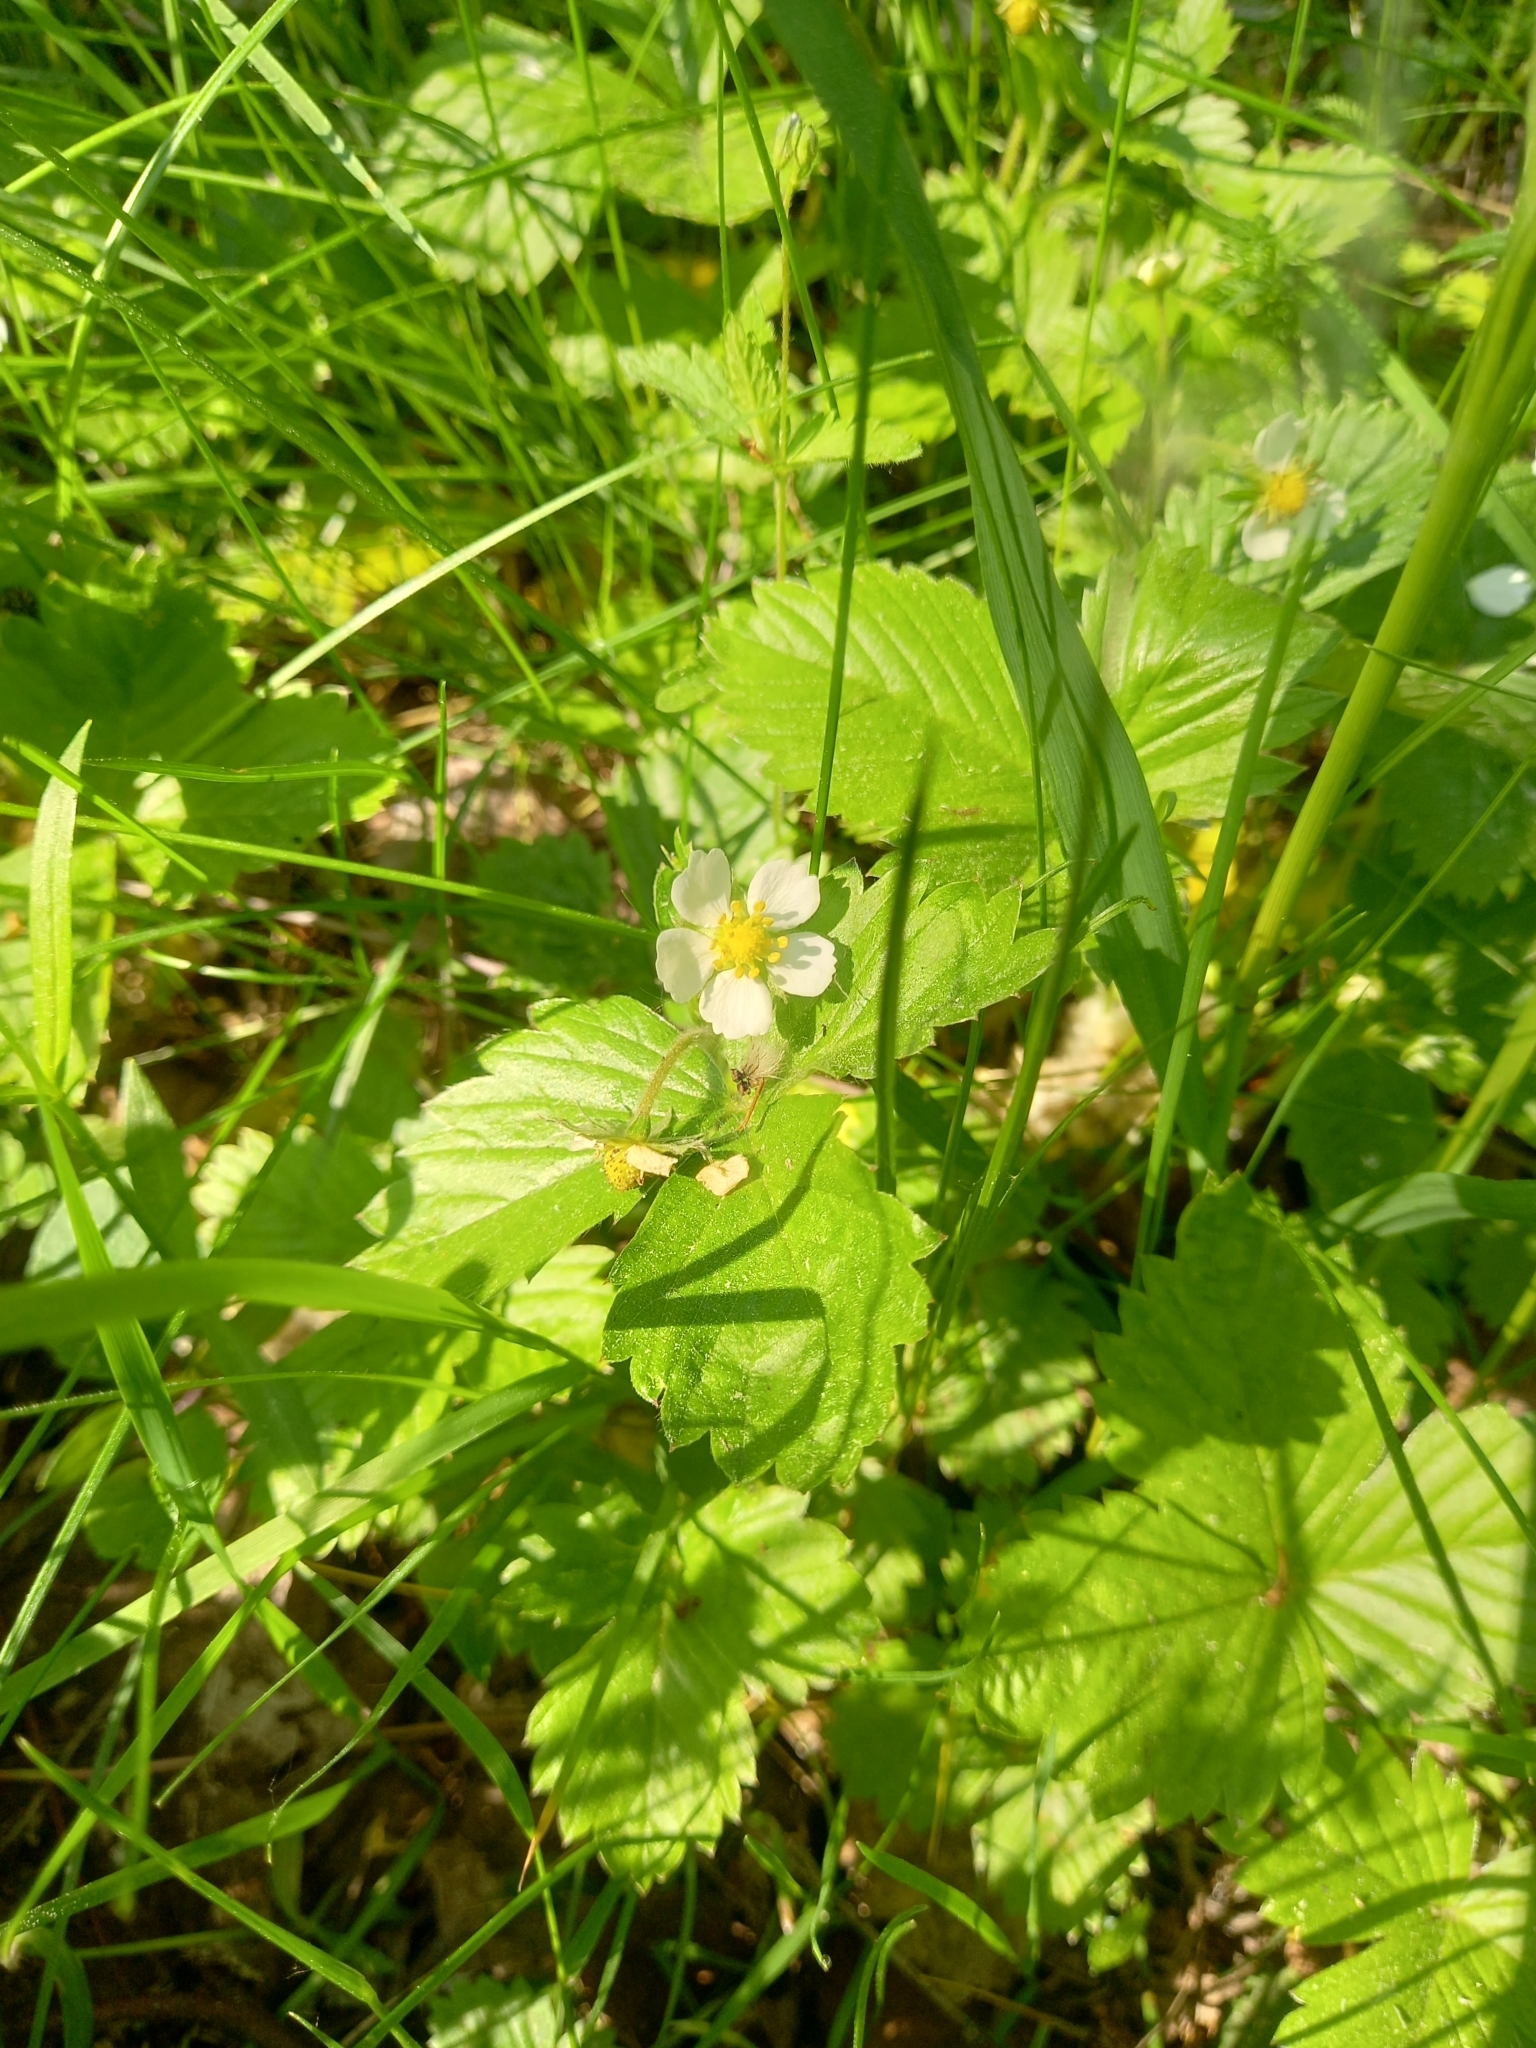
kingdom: Plantae
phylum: Tracheophyta
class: Magnoliopsida
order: Rosales
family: Rosaceae
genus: Fragaria
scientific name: Fragaria vesca
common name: Wild strawberry
